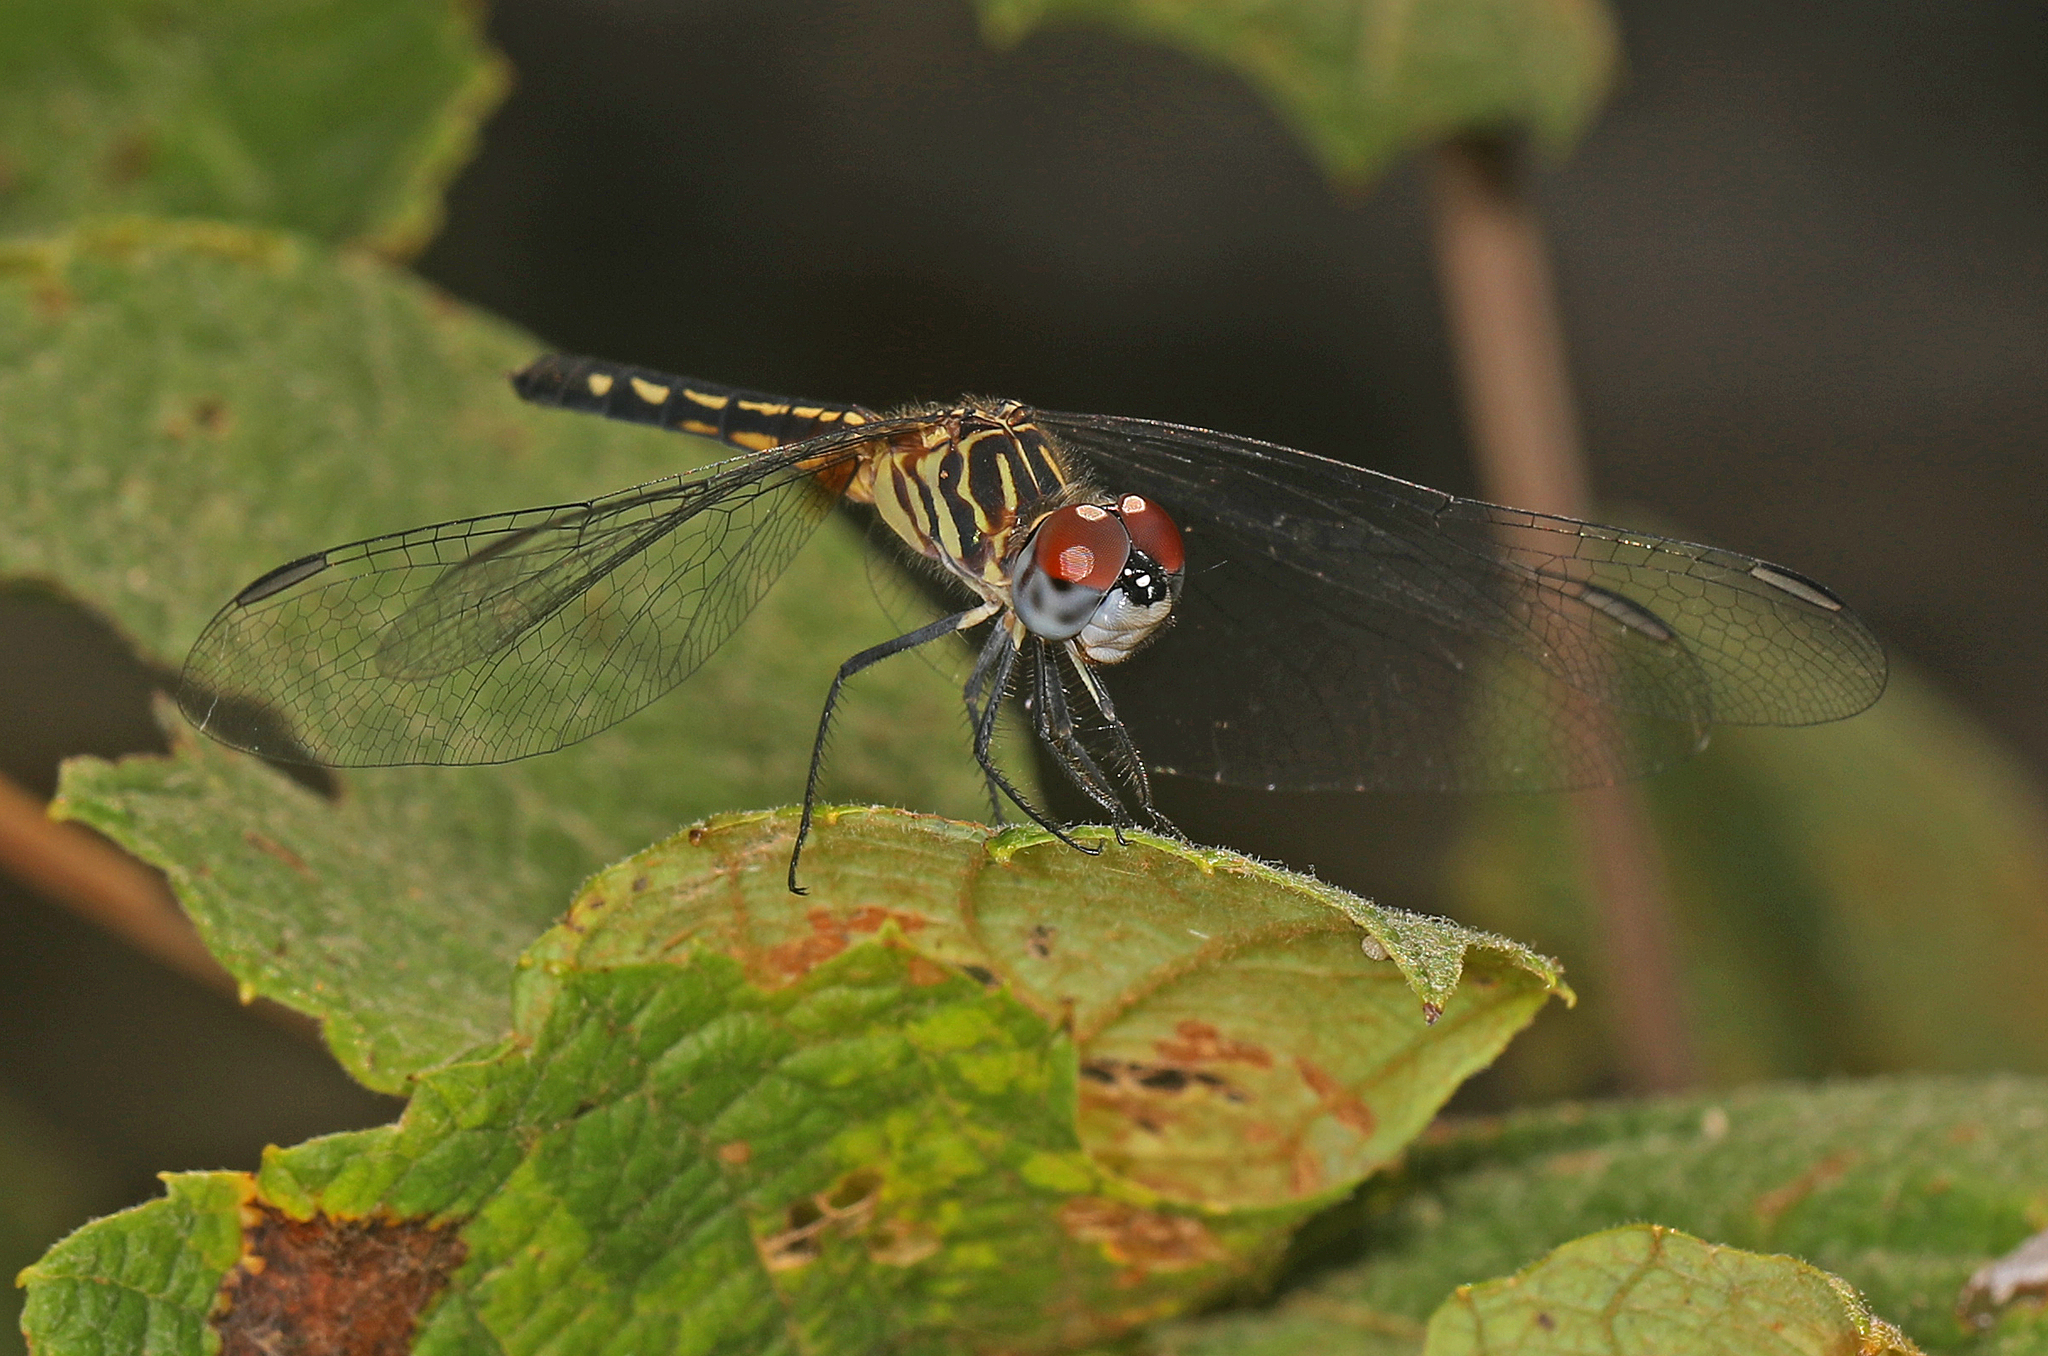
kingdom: Animalia
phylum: Arthropoda
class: Insecta
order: Odonata
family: Libellulidae
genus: Pachydiplax
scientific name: Pachydiplax longipennis
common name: Blue dasher
